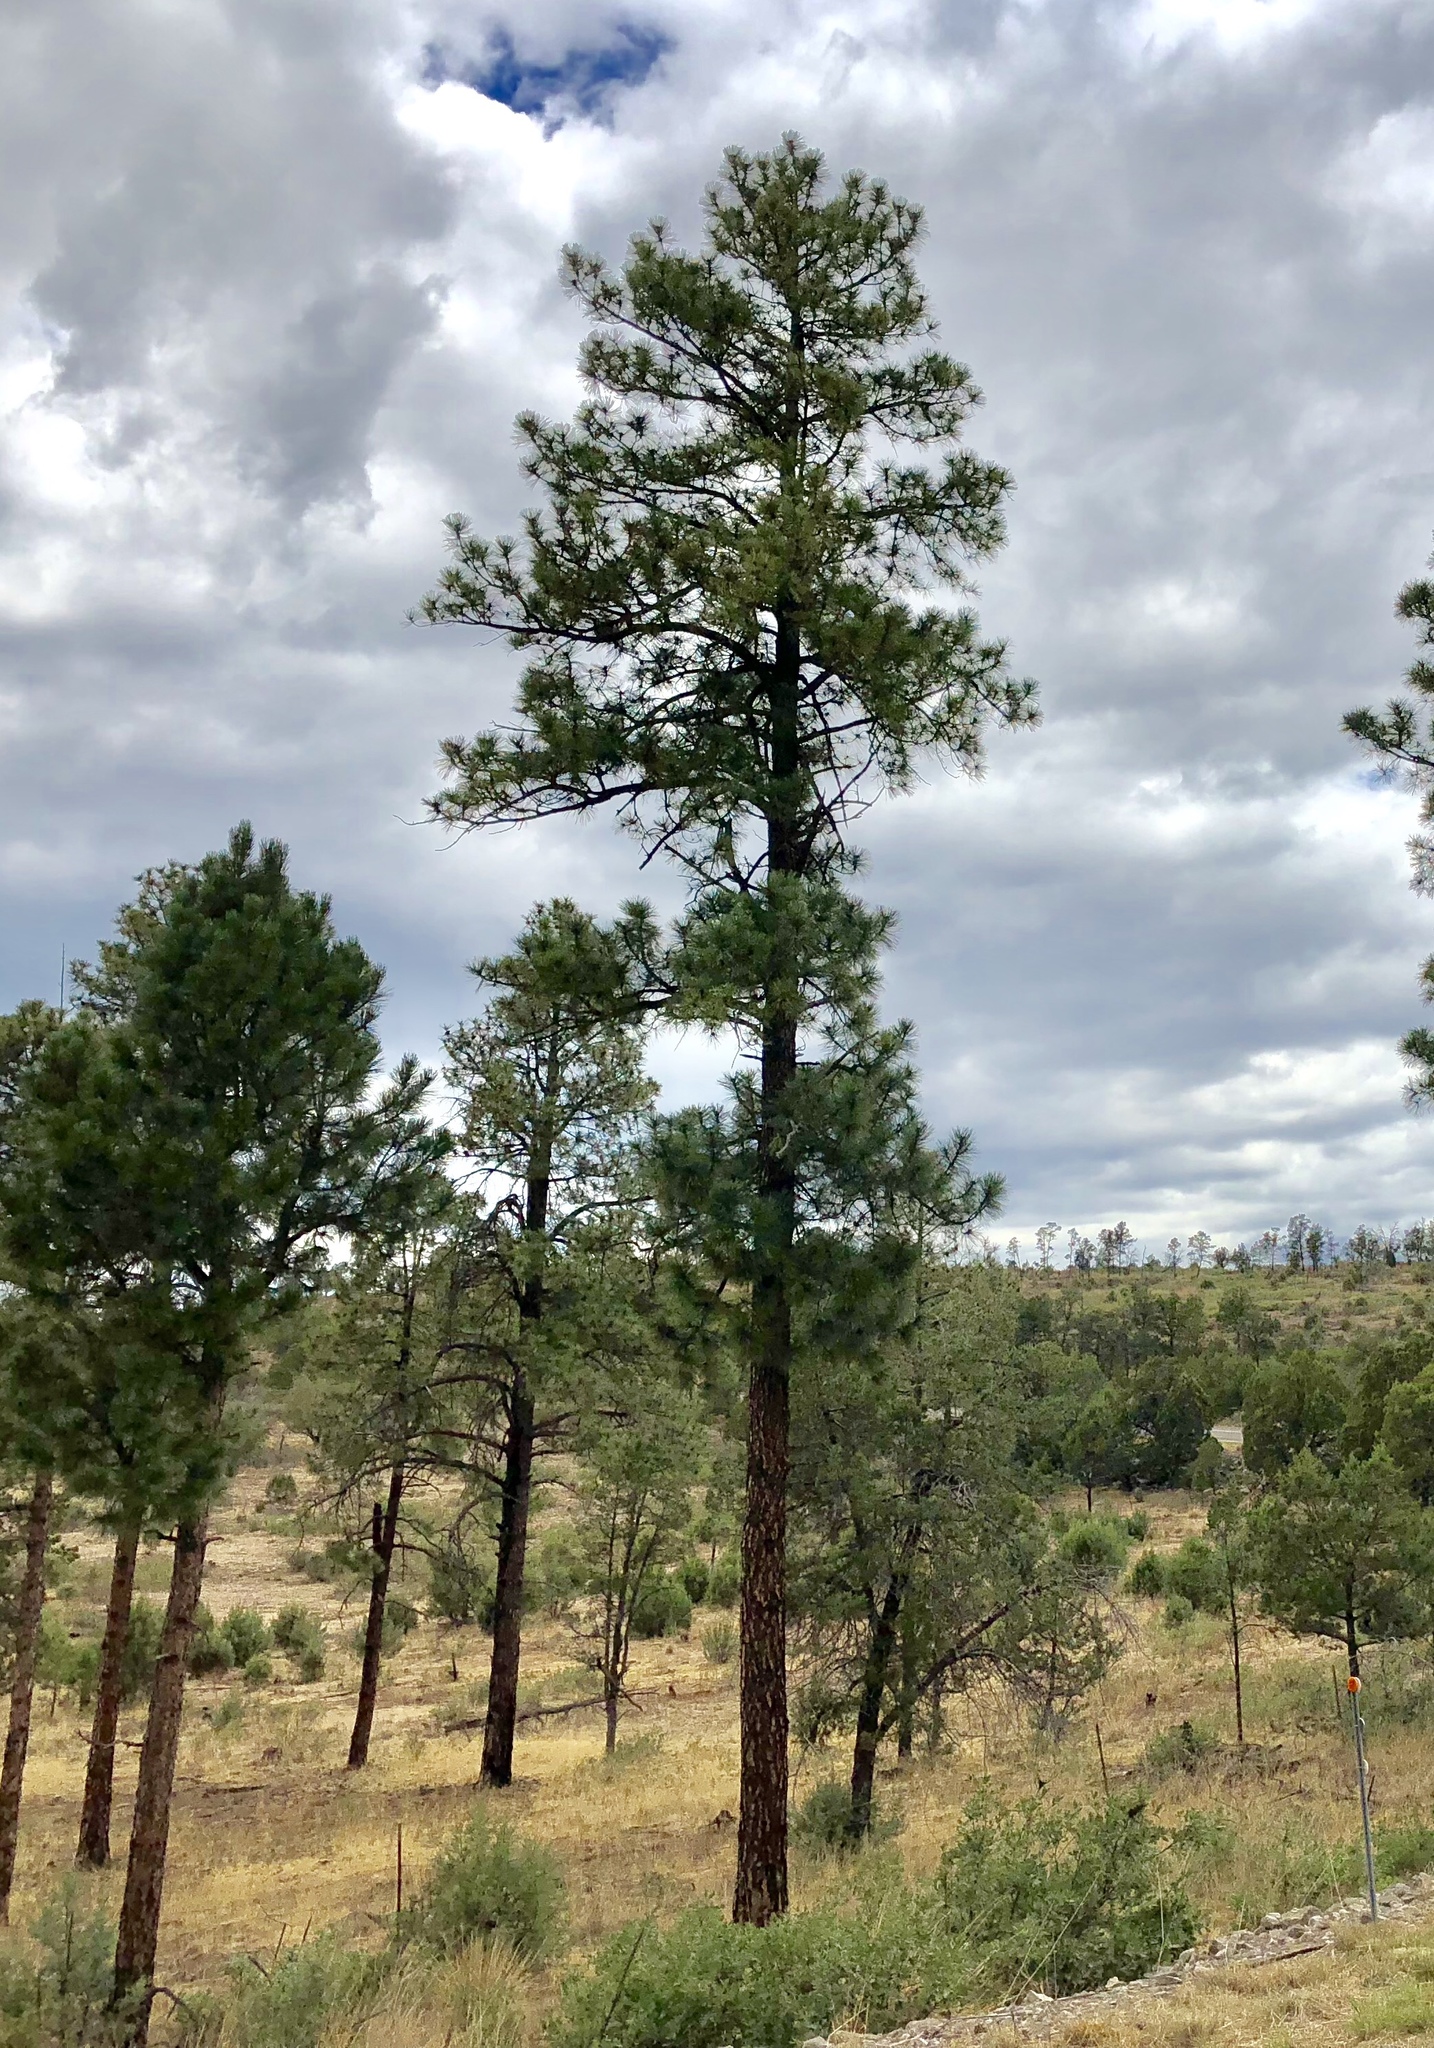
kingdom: Plantae
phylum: Tracheophyta
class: Pinopsida
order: Pinales
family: Pinaceae
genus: Pinus
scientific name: Pinus ponderosa
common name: Western yellow-pine
